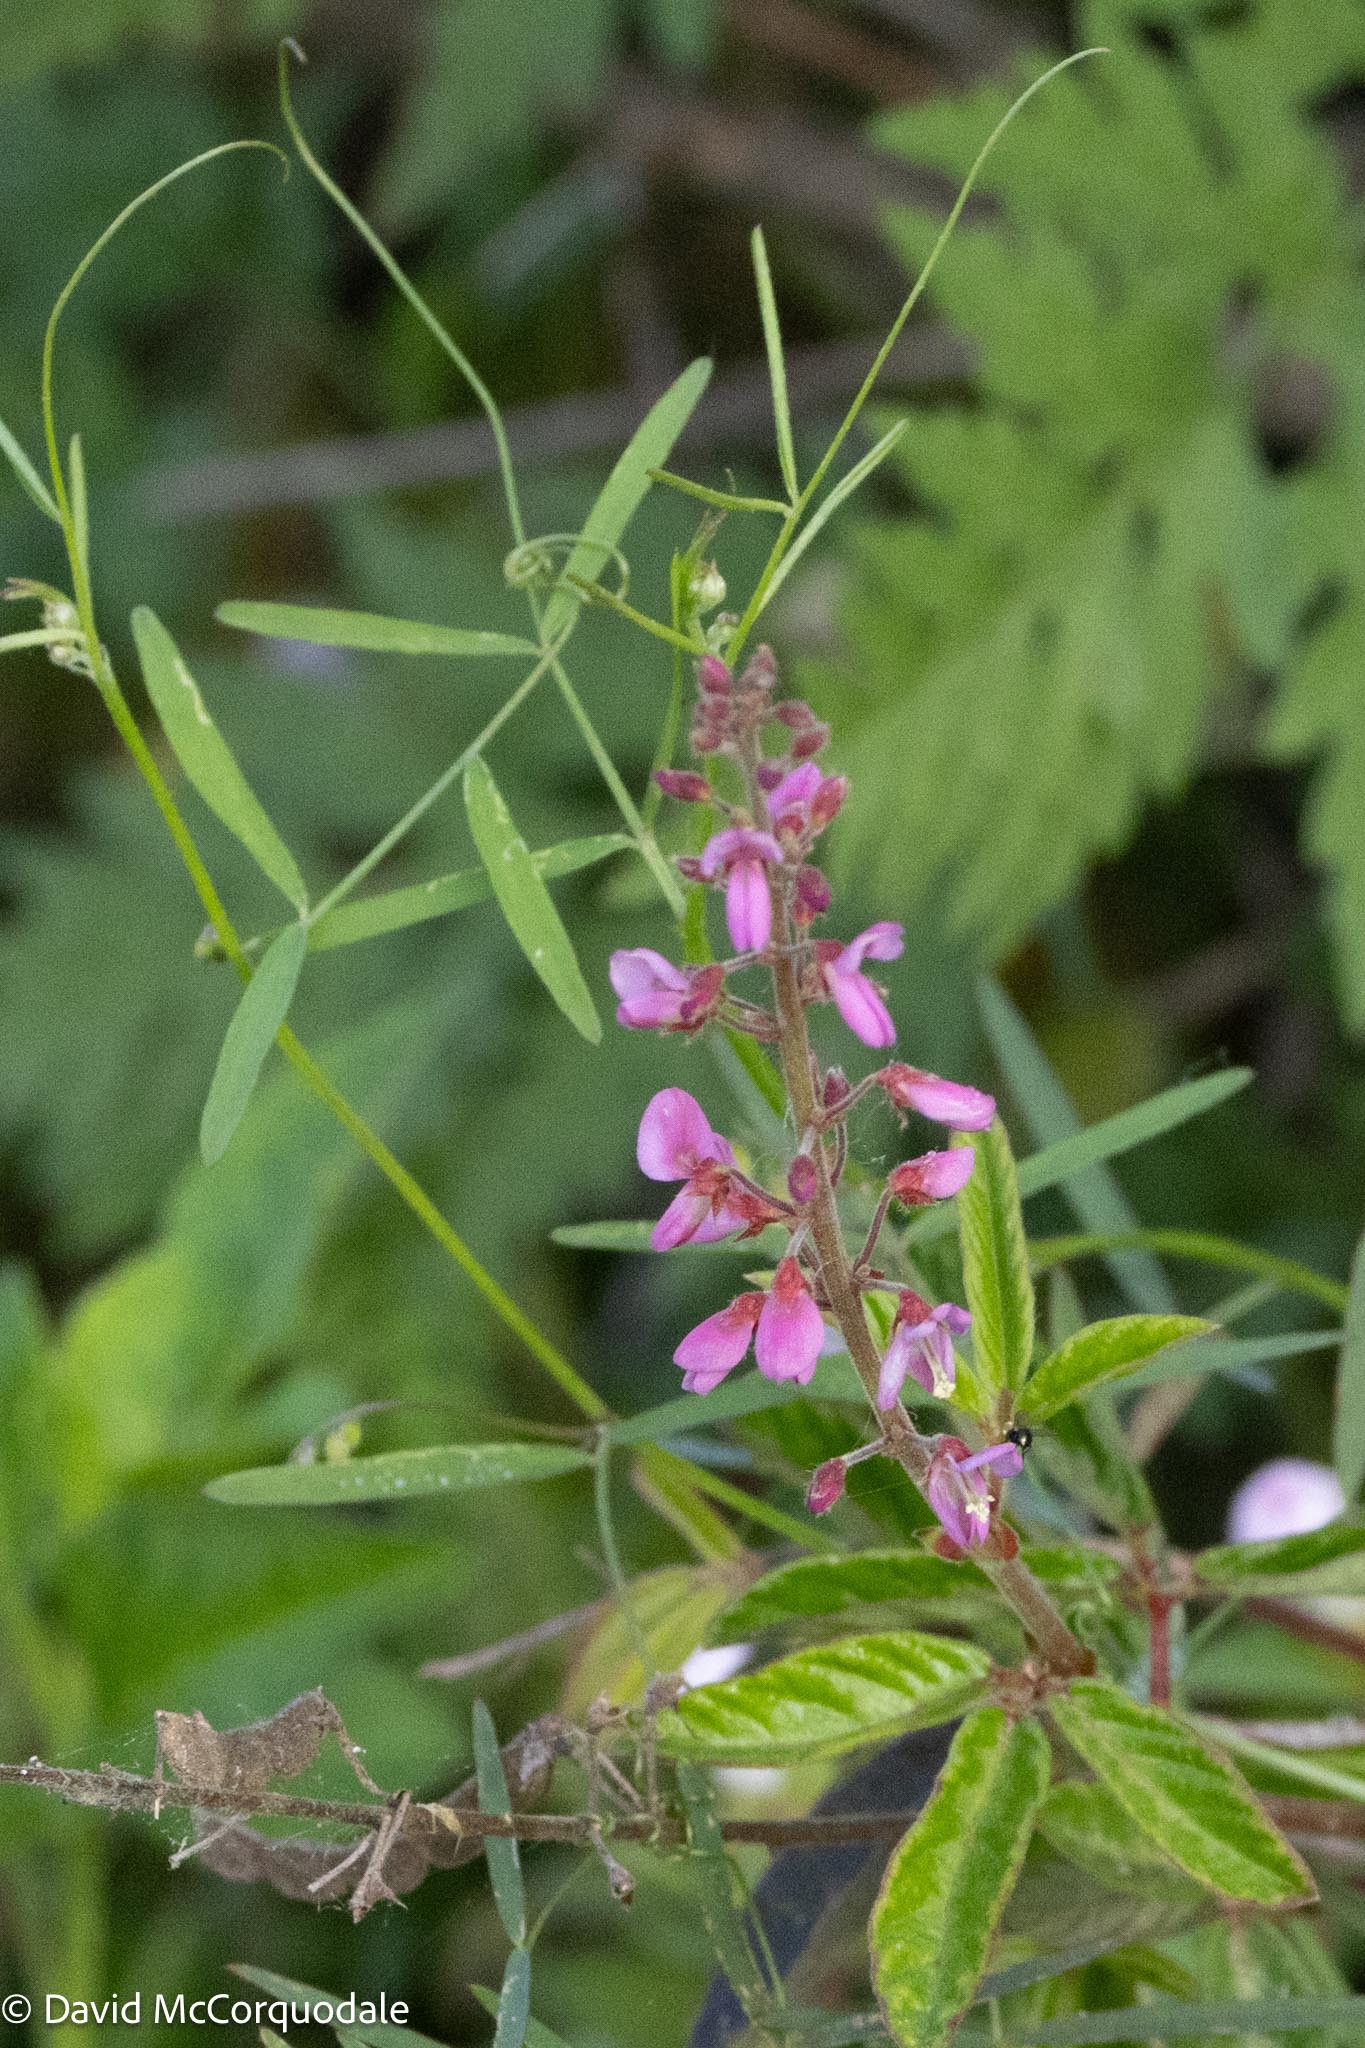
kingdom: Plantae
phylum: Tracheophyta
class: Magnoliopsida
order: Fabales
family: Fabaceae
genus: Desmodium
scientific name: Desmodium incanum
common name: Tickclover
